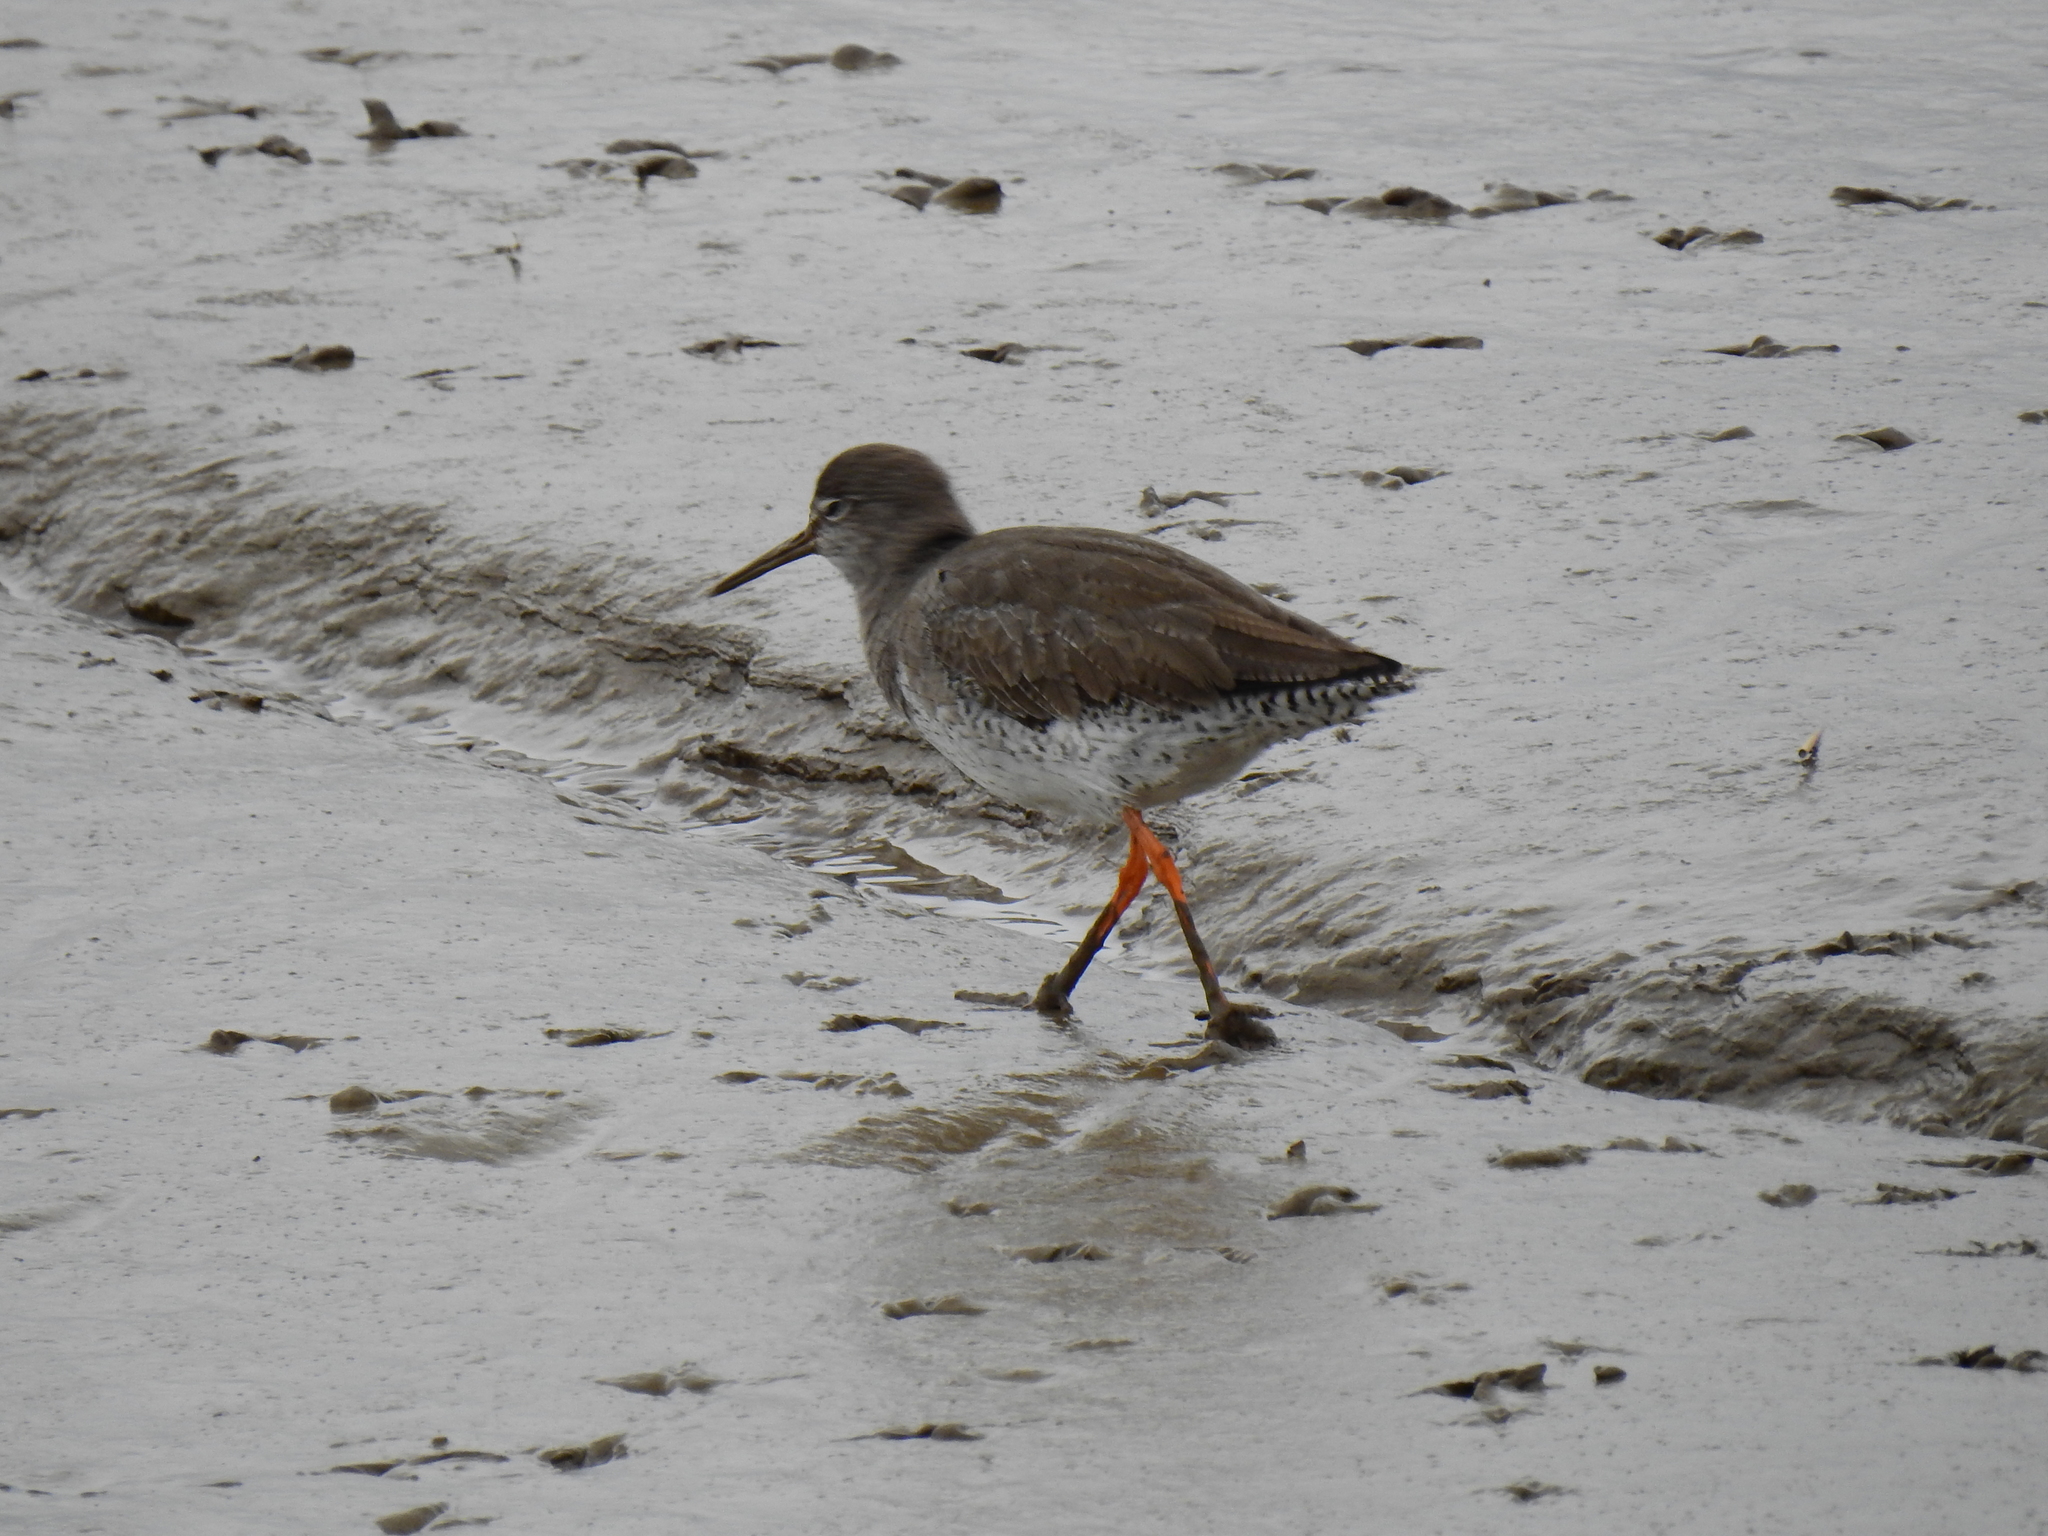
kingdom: Animalia
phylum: Chordata
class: Aves
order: Charadriiformes
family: Scolopacidae
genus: Tringa
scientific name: Tringa totanus
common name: Common redshank
